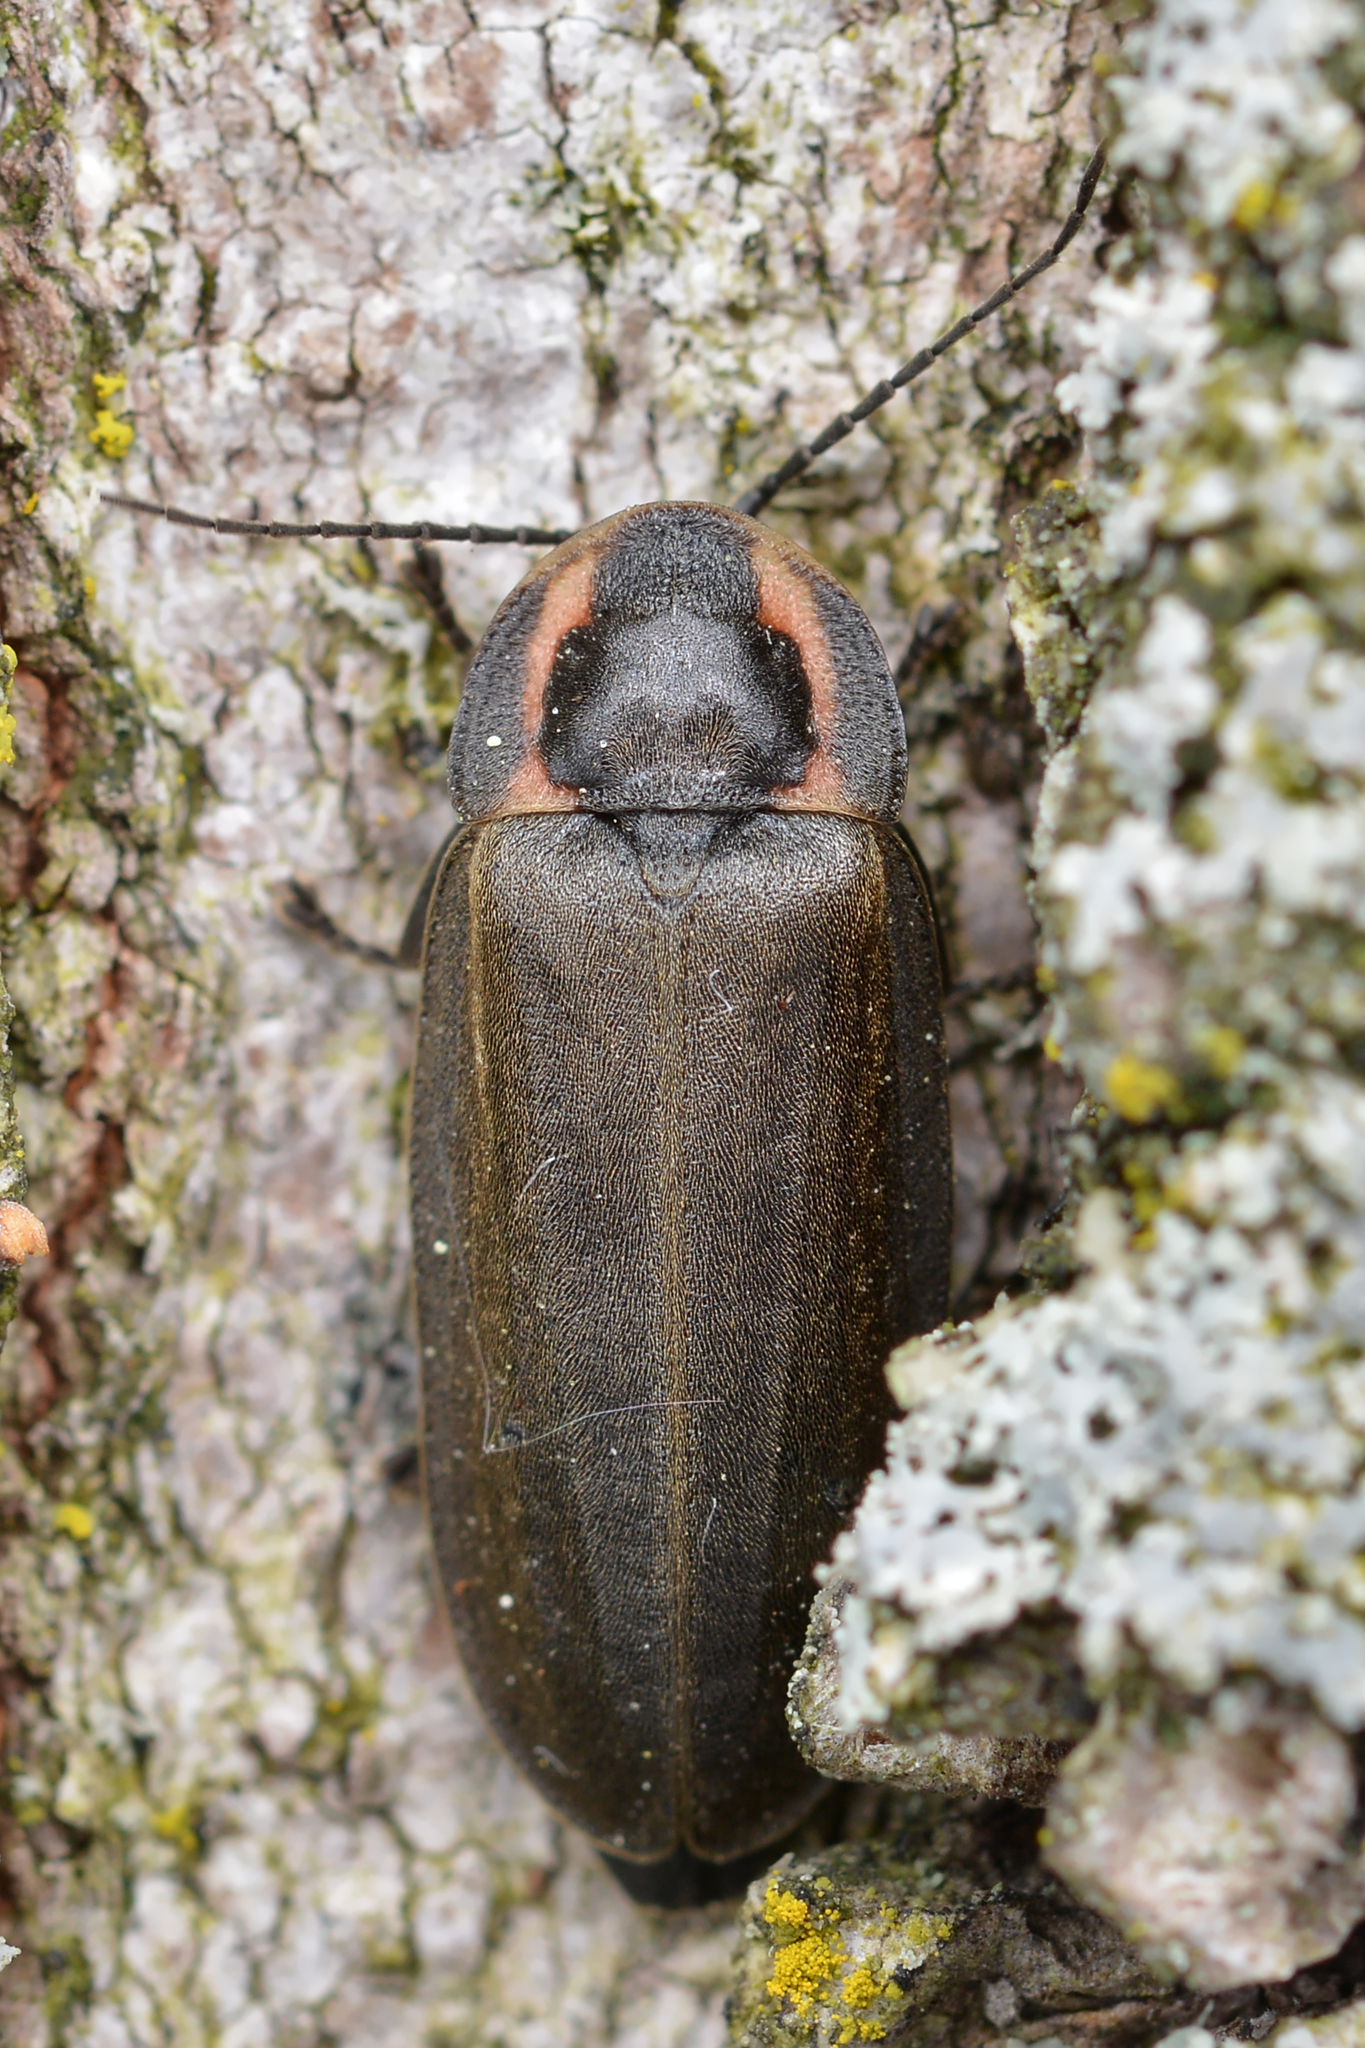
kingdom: Animalia
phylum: Arthropoda
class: Insecta
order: Coleoptera
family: Lampyridae
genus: Photinus
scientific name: Photinus corrusca
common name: Winter firefly
